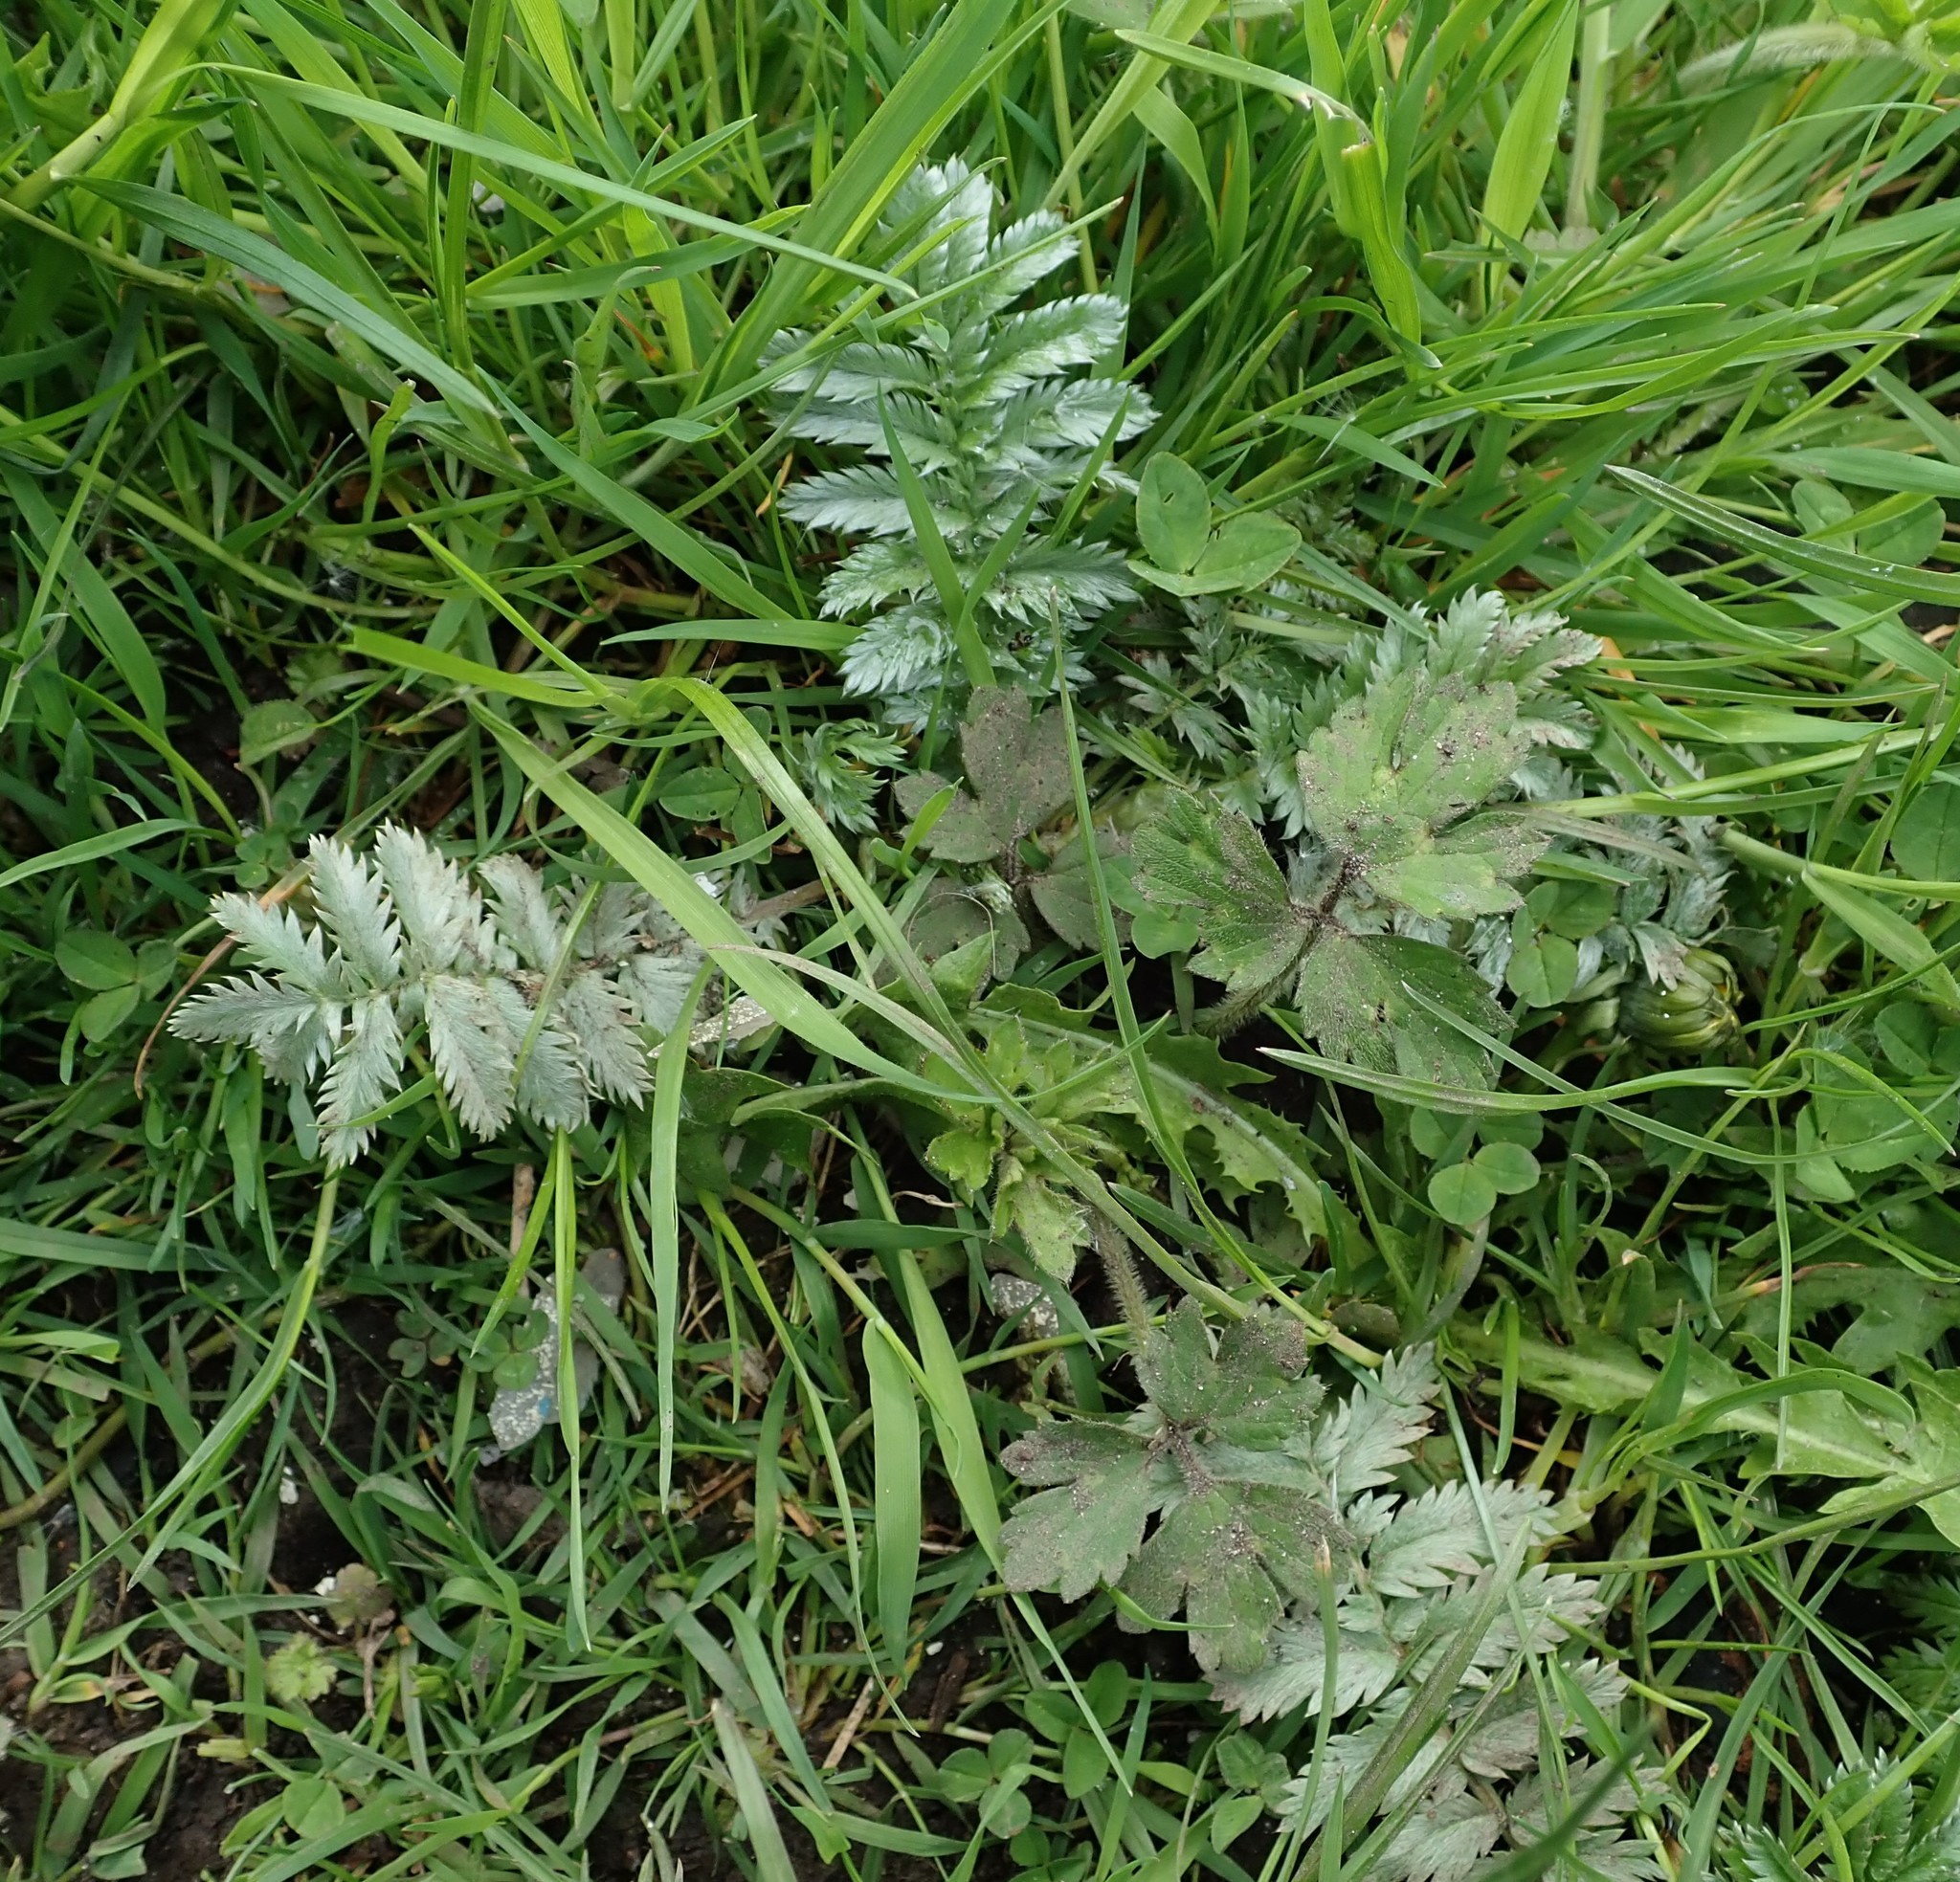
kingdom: Plantae
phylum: Tracheophyta
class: Magnoliopsida
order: Rosales
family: Rosaceae
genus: Argentina
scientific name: Argentina anserina
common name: Common silverweed
